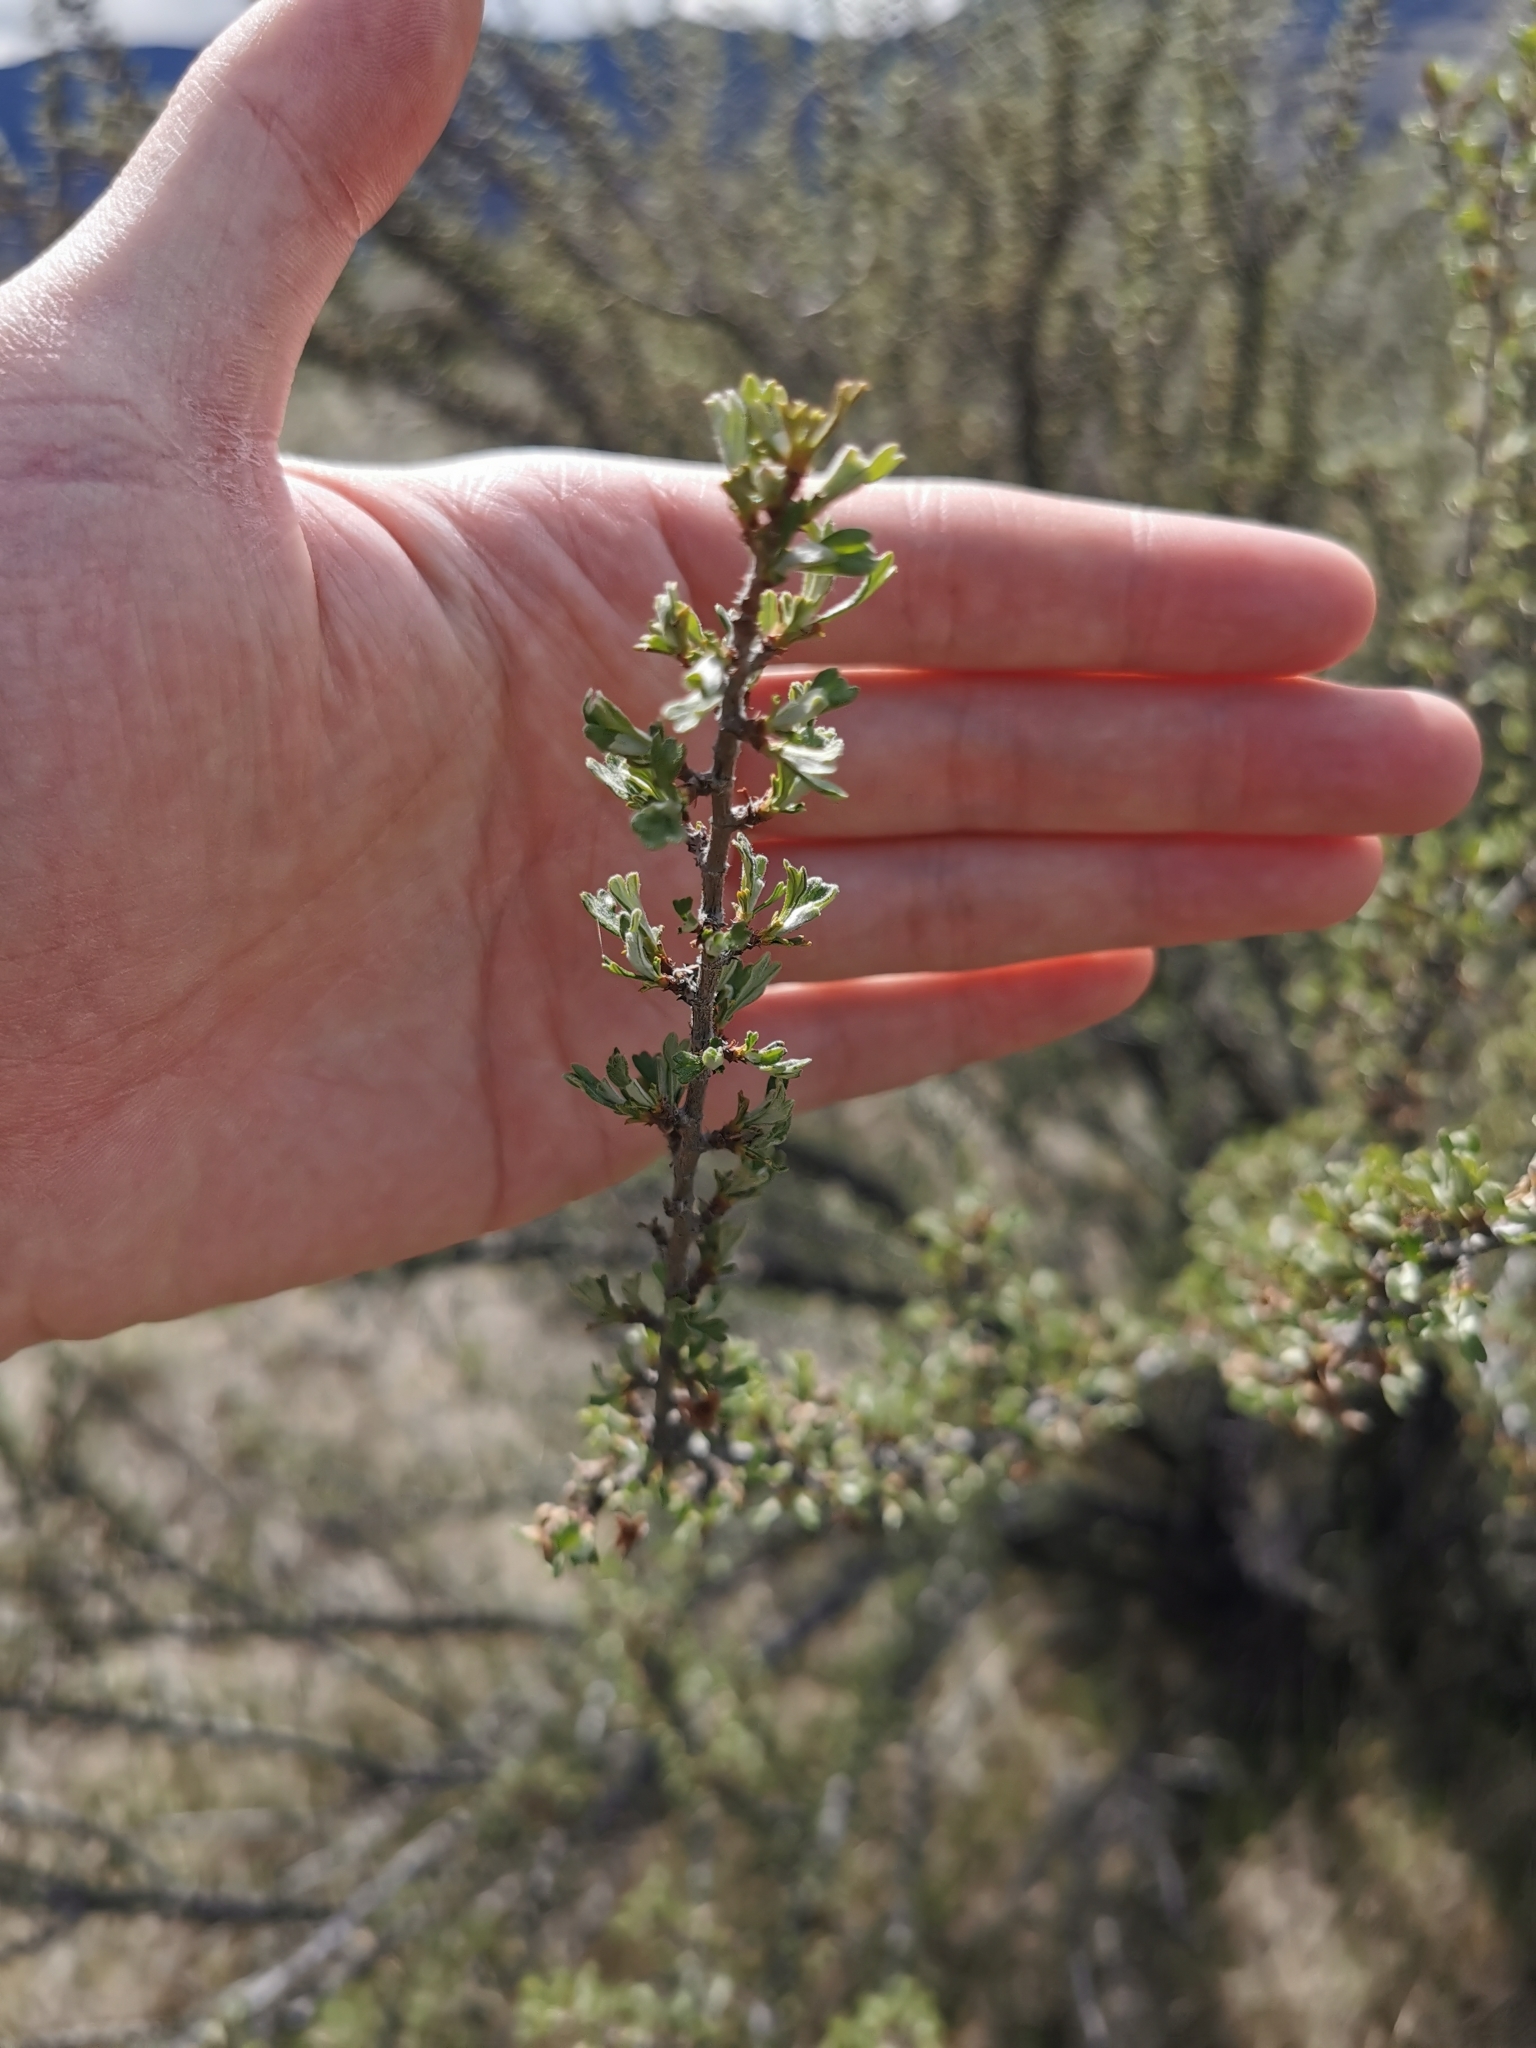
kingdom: Plantae
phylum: Tracheophyta
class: Magnoliopsida
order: Rosales
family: Rosaceae
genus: Purshia
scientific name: Purshia tridentata
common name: Antelope bitterbrush
